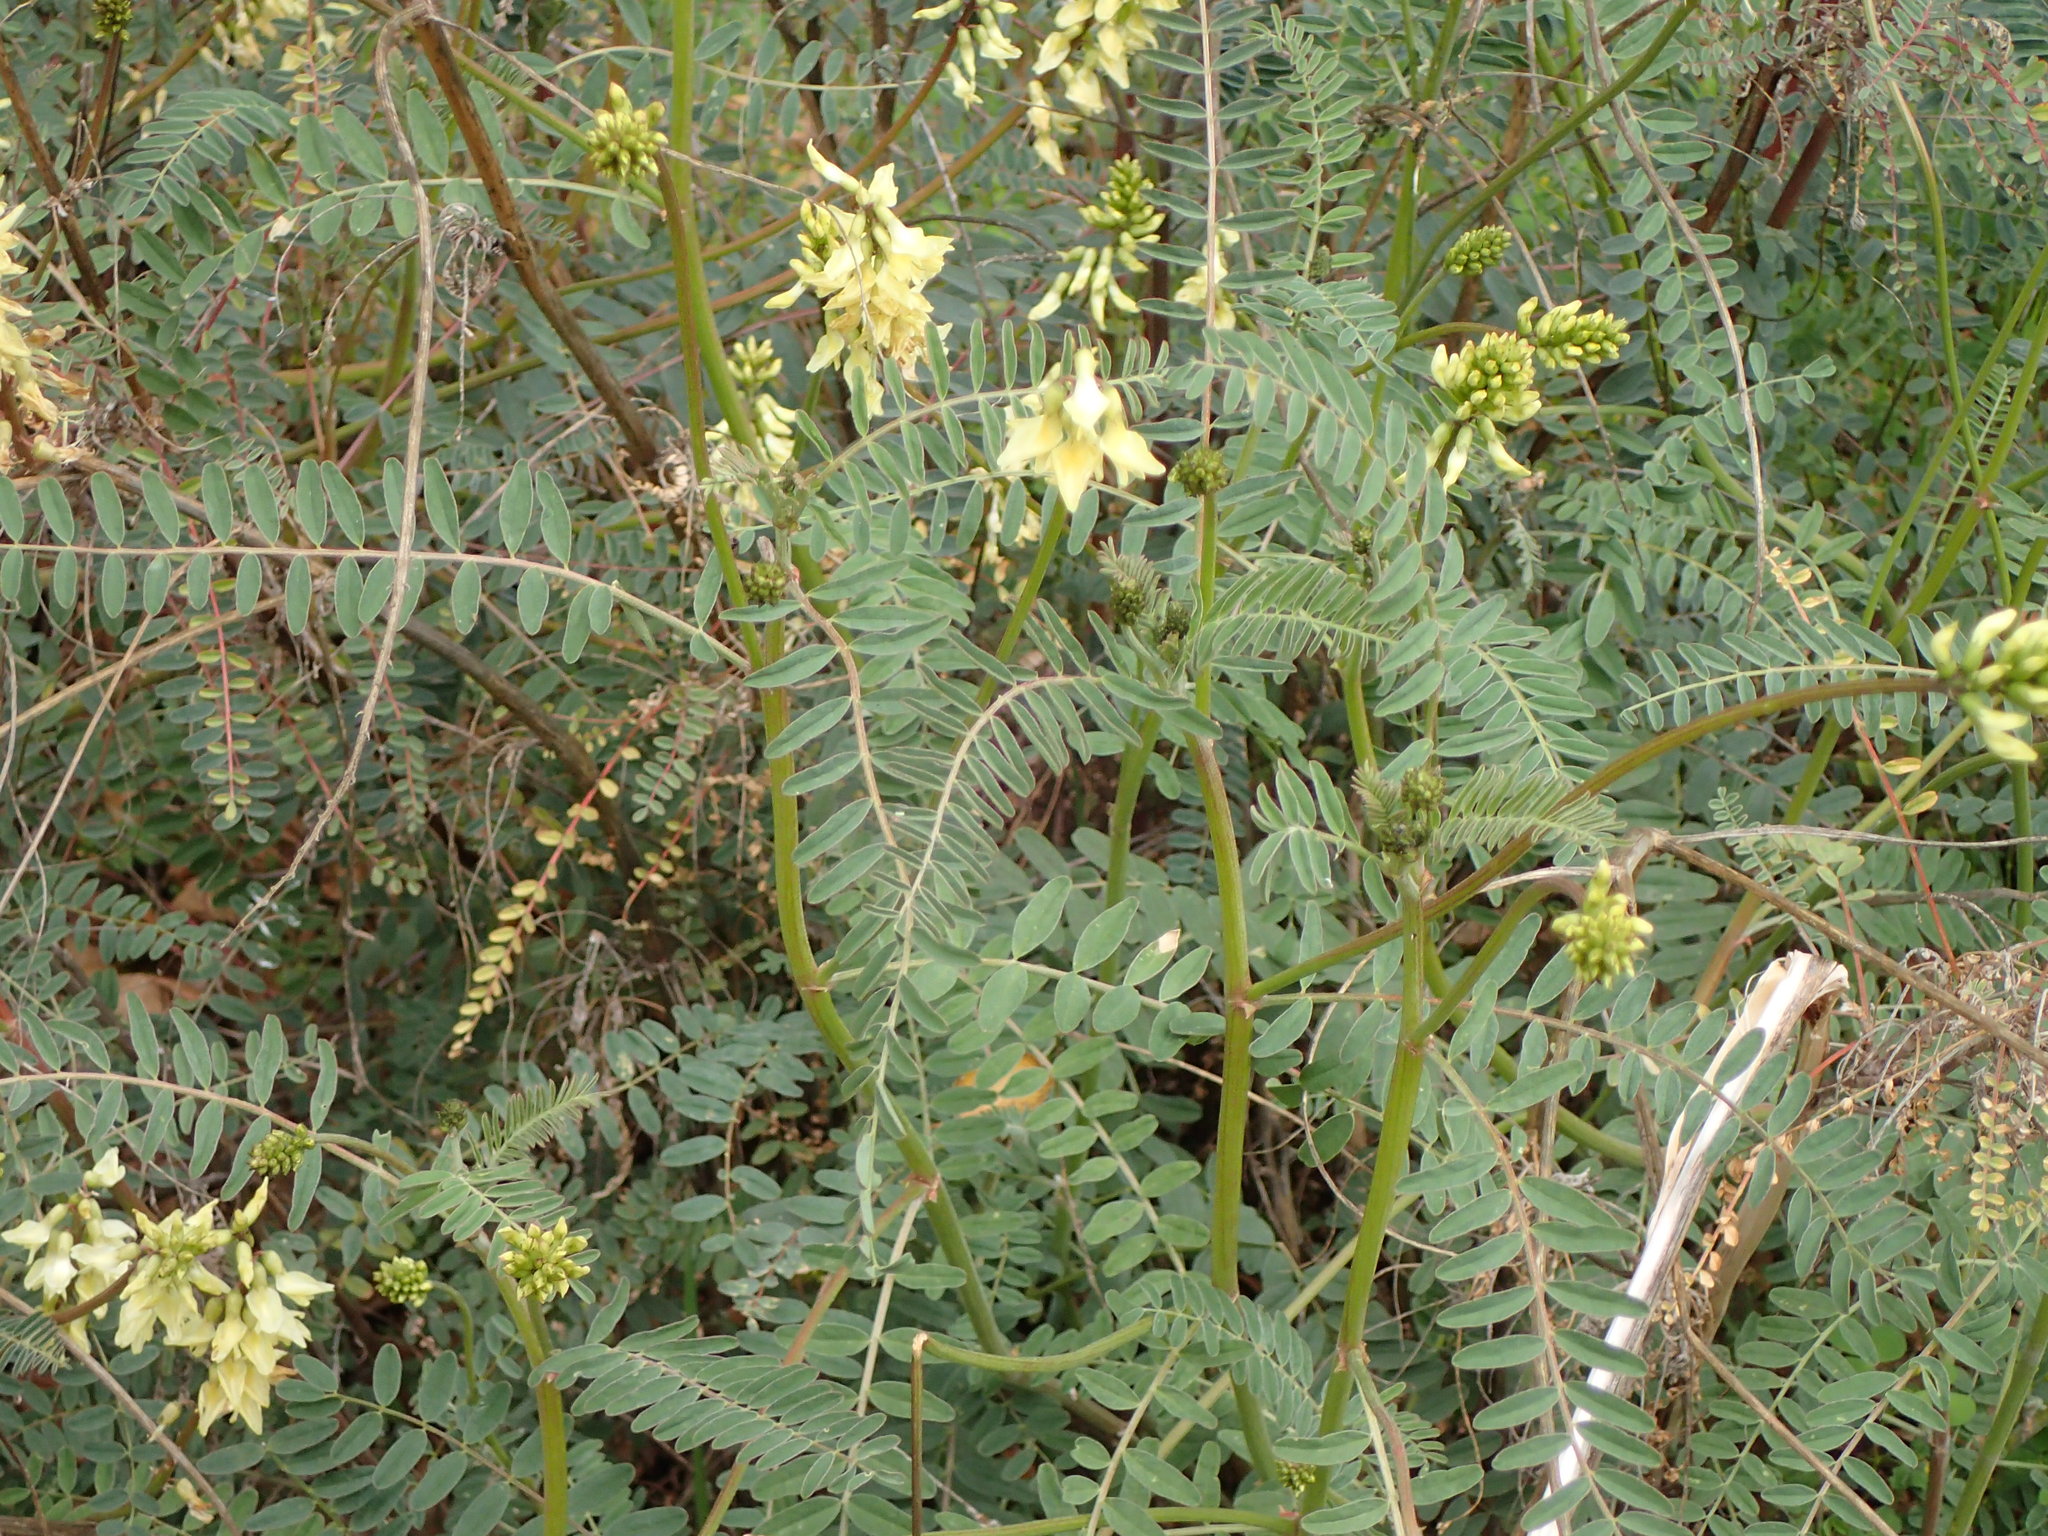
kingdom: Plantae
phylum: Tracheophyta
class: Magnoliopsida
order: Fabales
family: Fabaceae
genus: Astragalus
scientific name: Astragalus trichopodus
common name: Santa barbara milk-vetch
